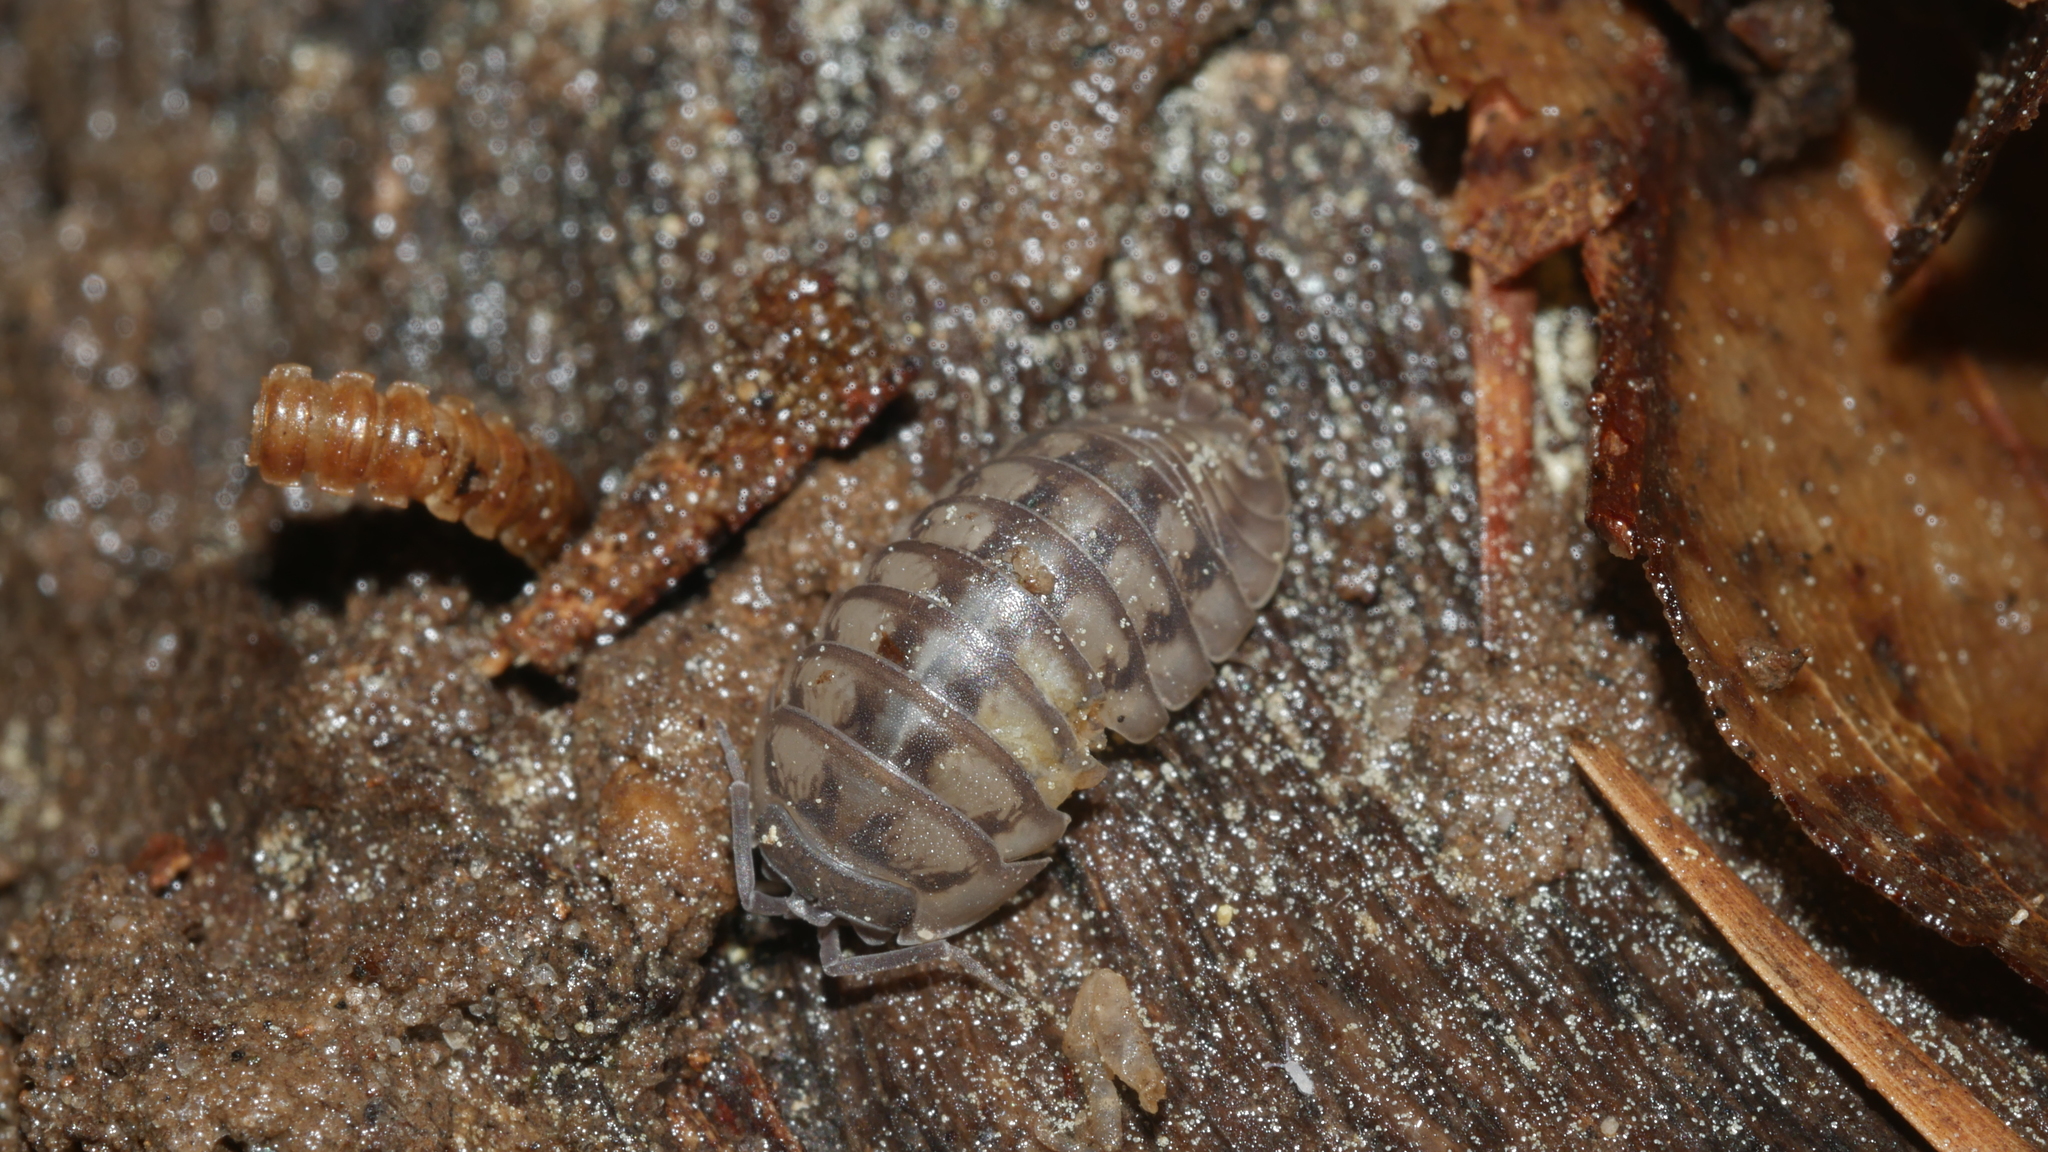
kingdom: Animalia
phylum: Arthropoda
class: Malacostraca
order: Isopoda
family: Armadillidiidae
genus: Armadillidium
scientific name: Armadillidium nasatum
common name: Isopod
